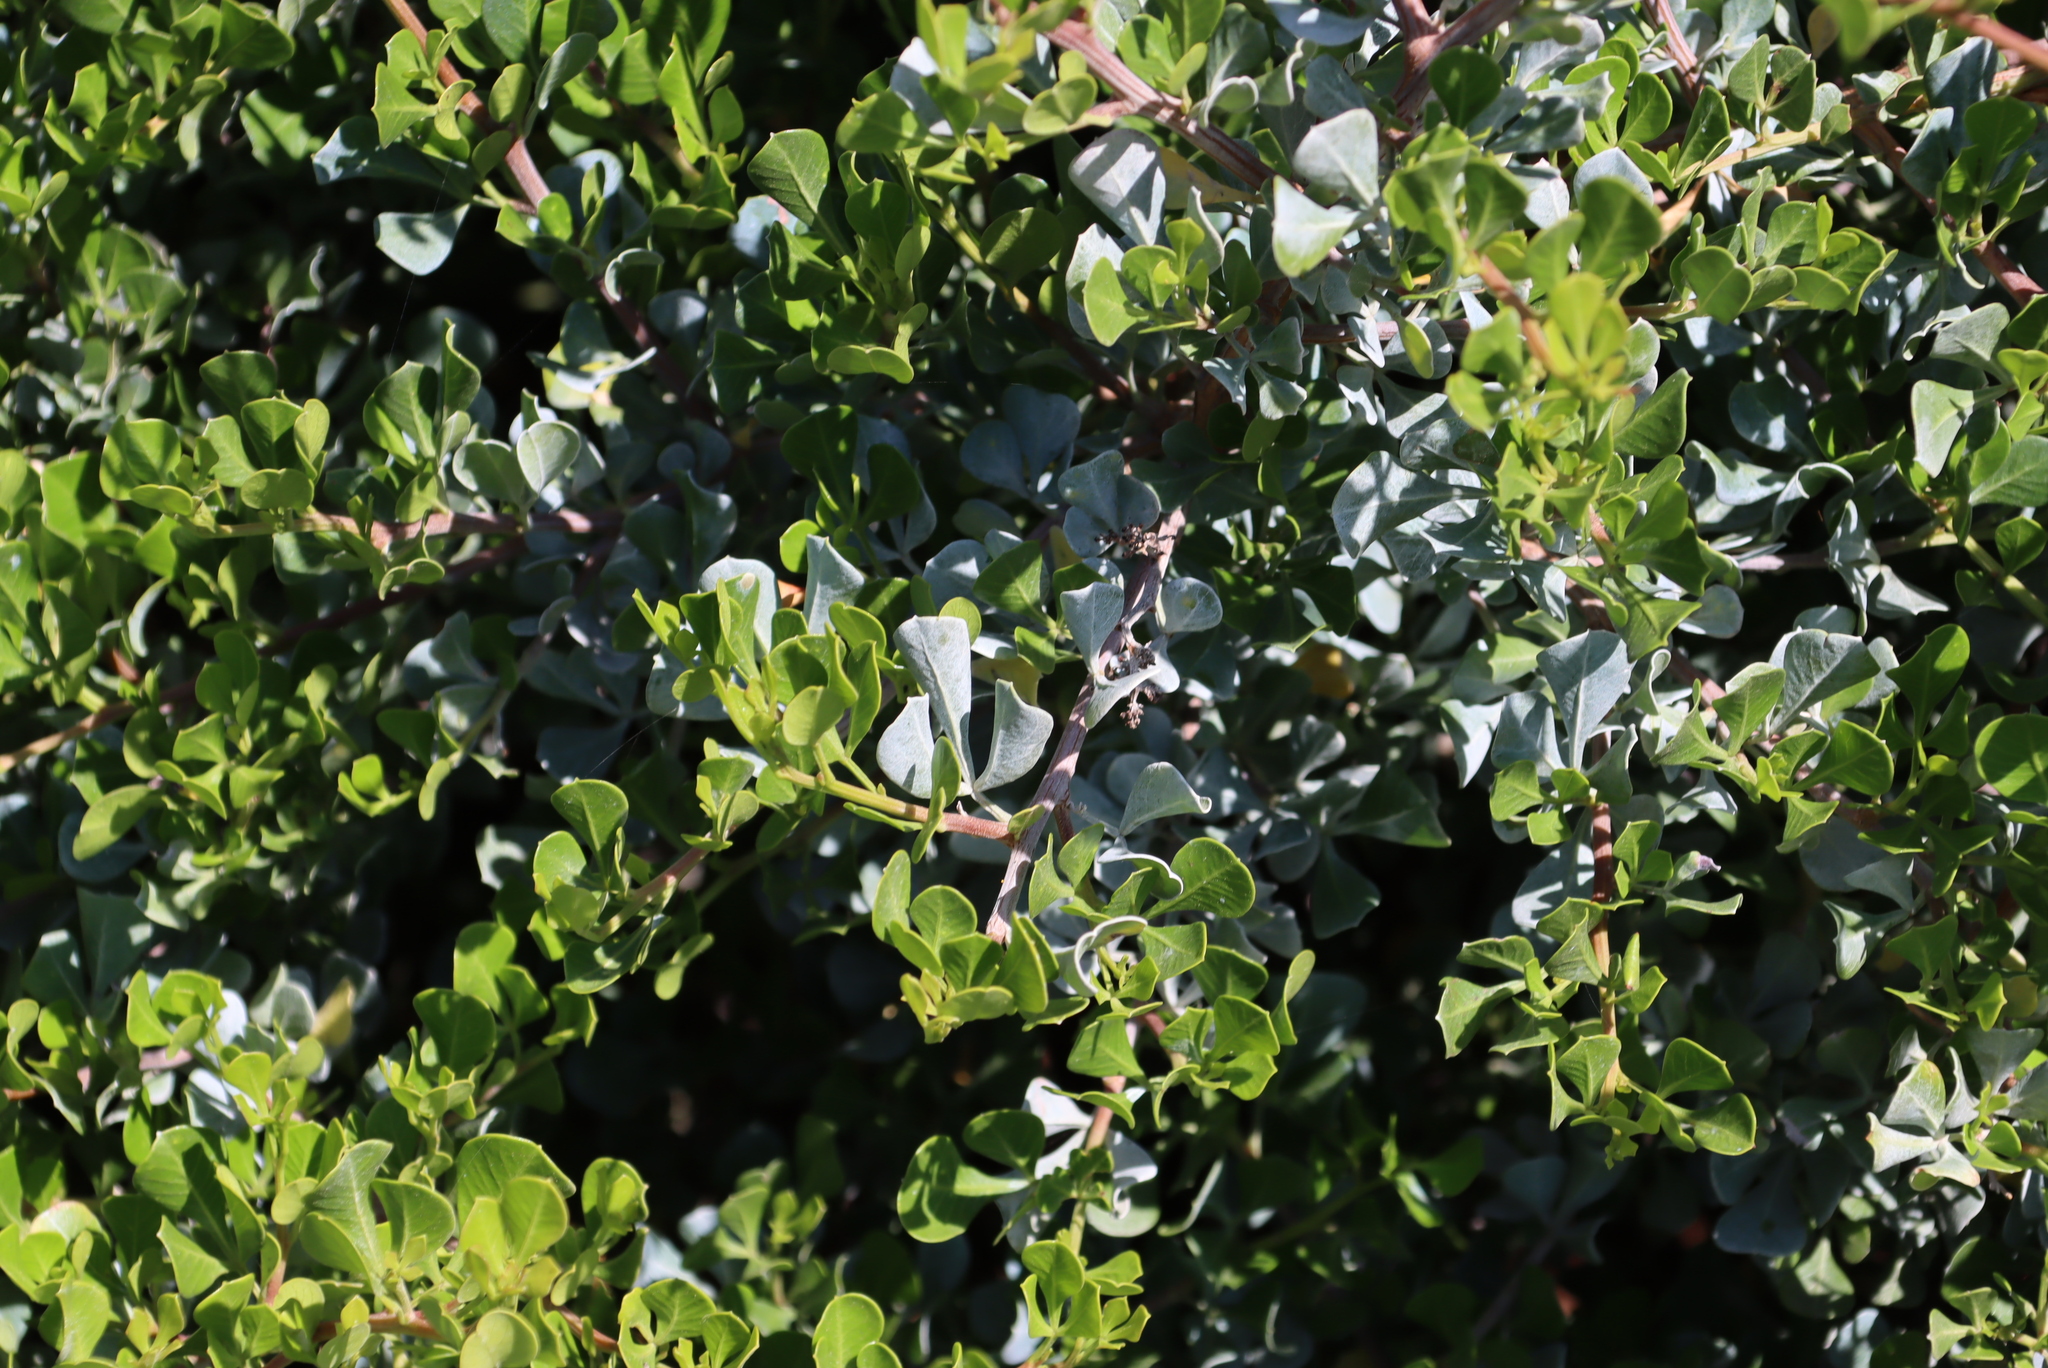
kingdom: Plantae
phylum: Tracheophyta
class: Magnoliopsida
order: Sapindales
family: Anacardiaceae
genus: Searsia
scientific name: Searsia glauca
